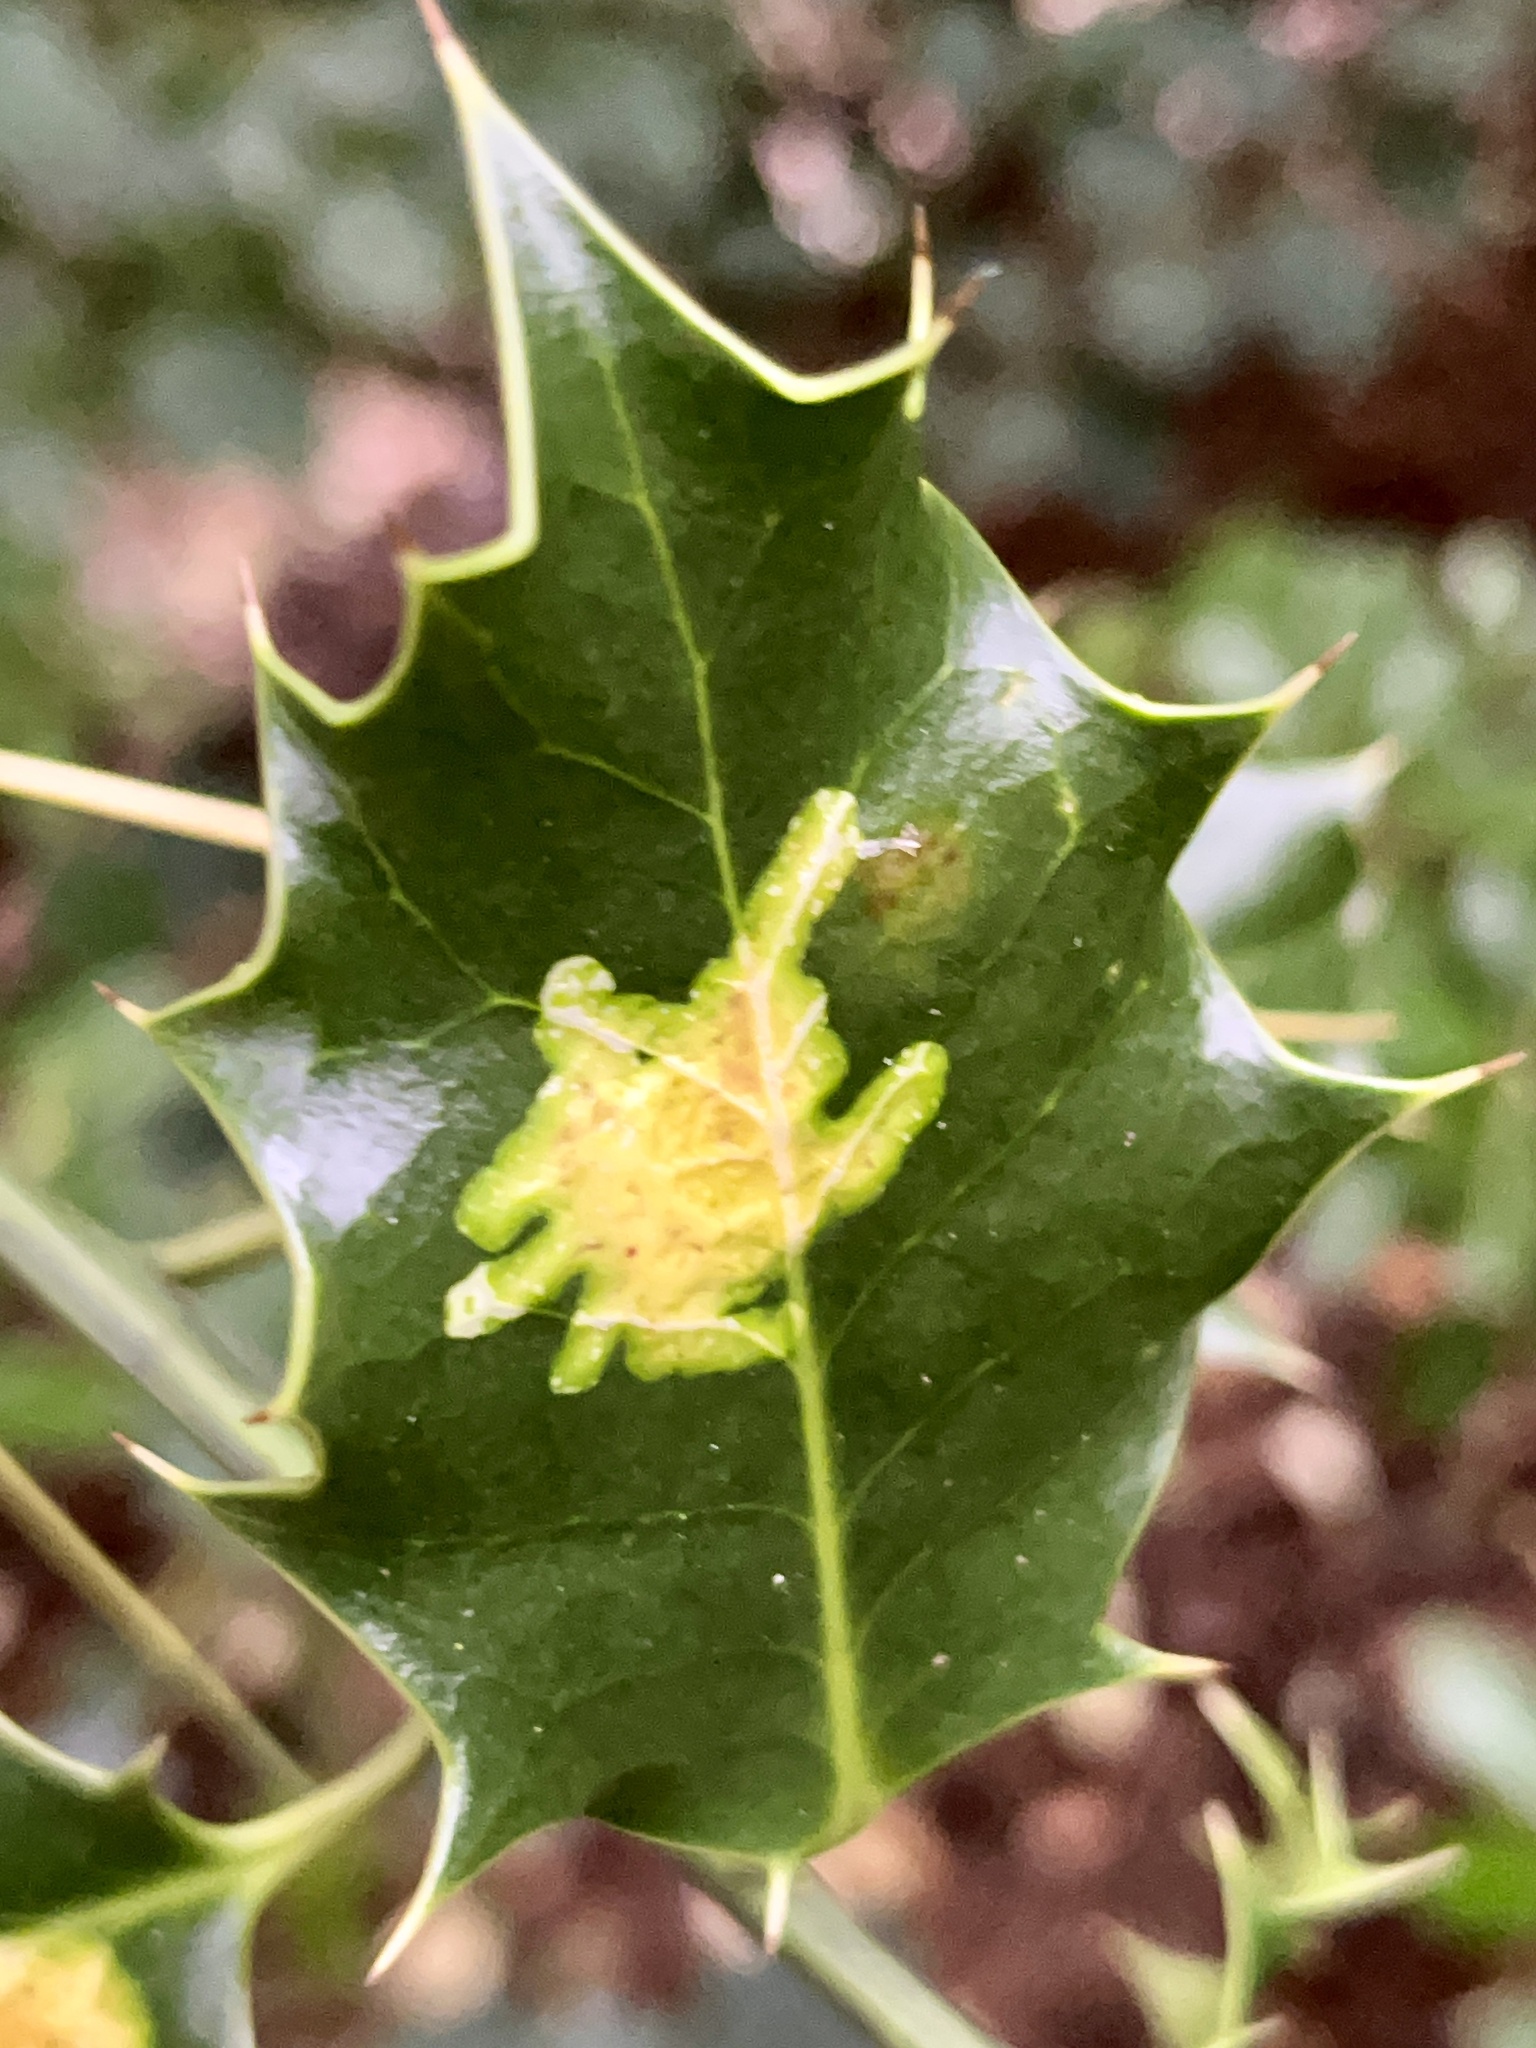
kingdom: Animalia
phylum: Arthropoda
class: Insecta
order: Diptera
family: Agromyzidae
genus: Phytomyza
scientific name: Phytomyza ilicis
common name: Holly leafminer
